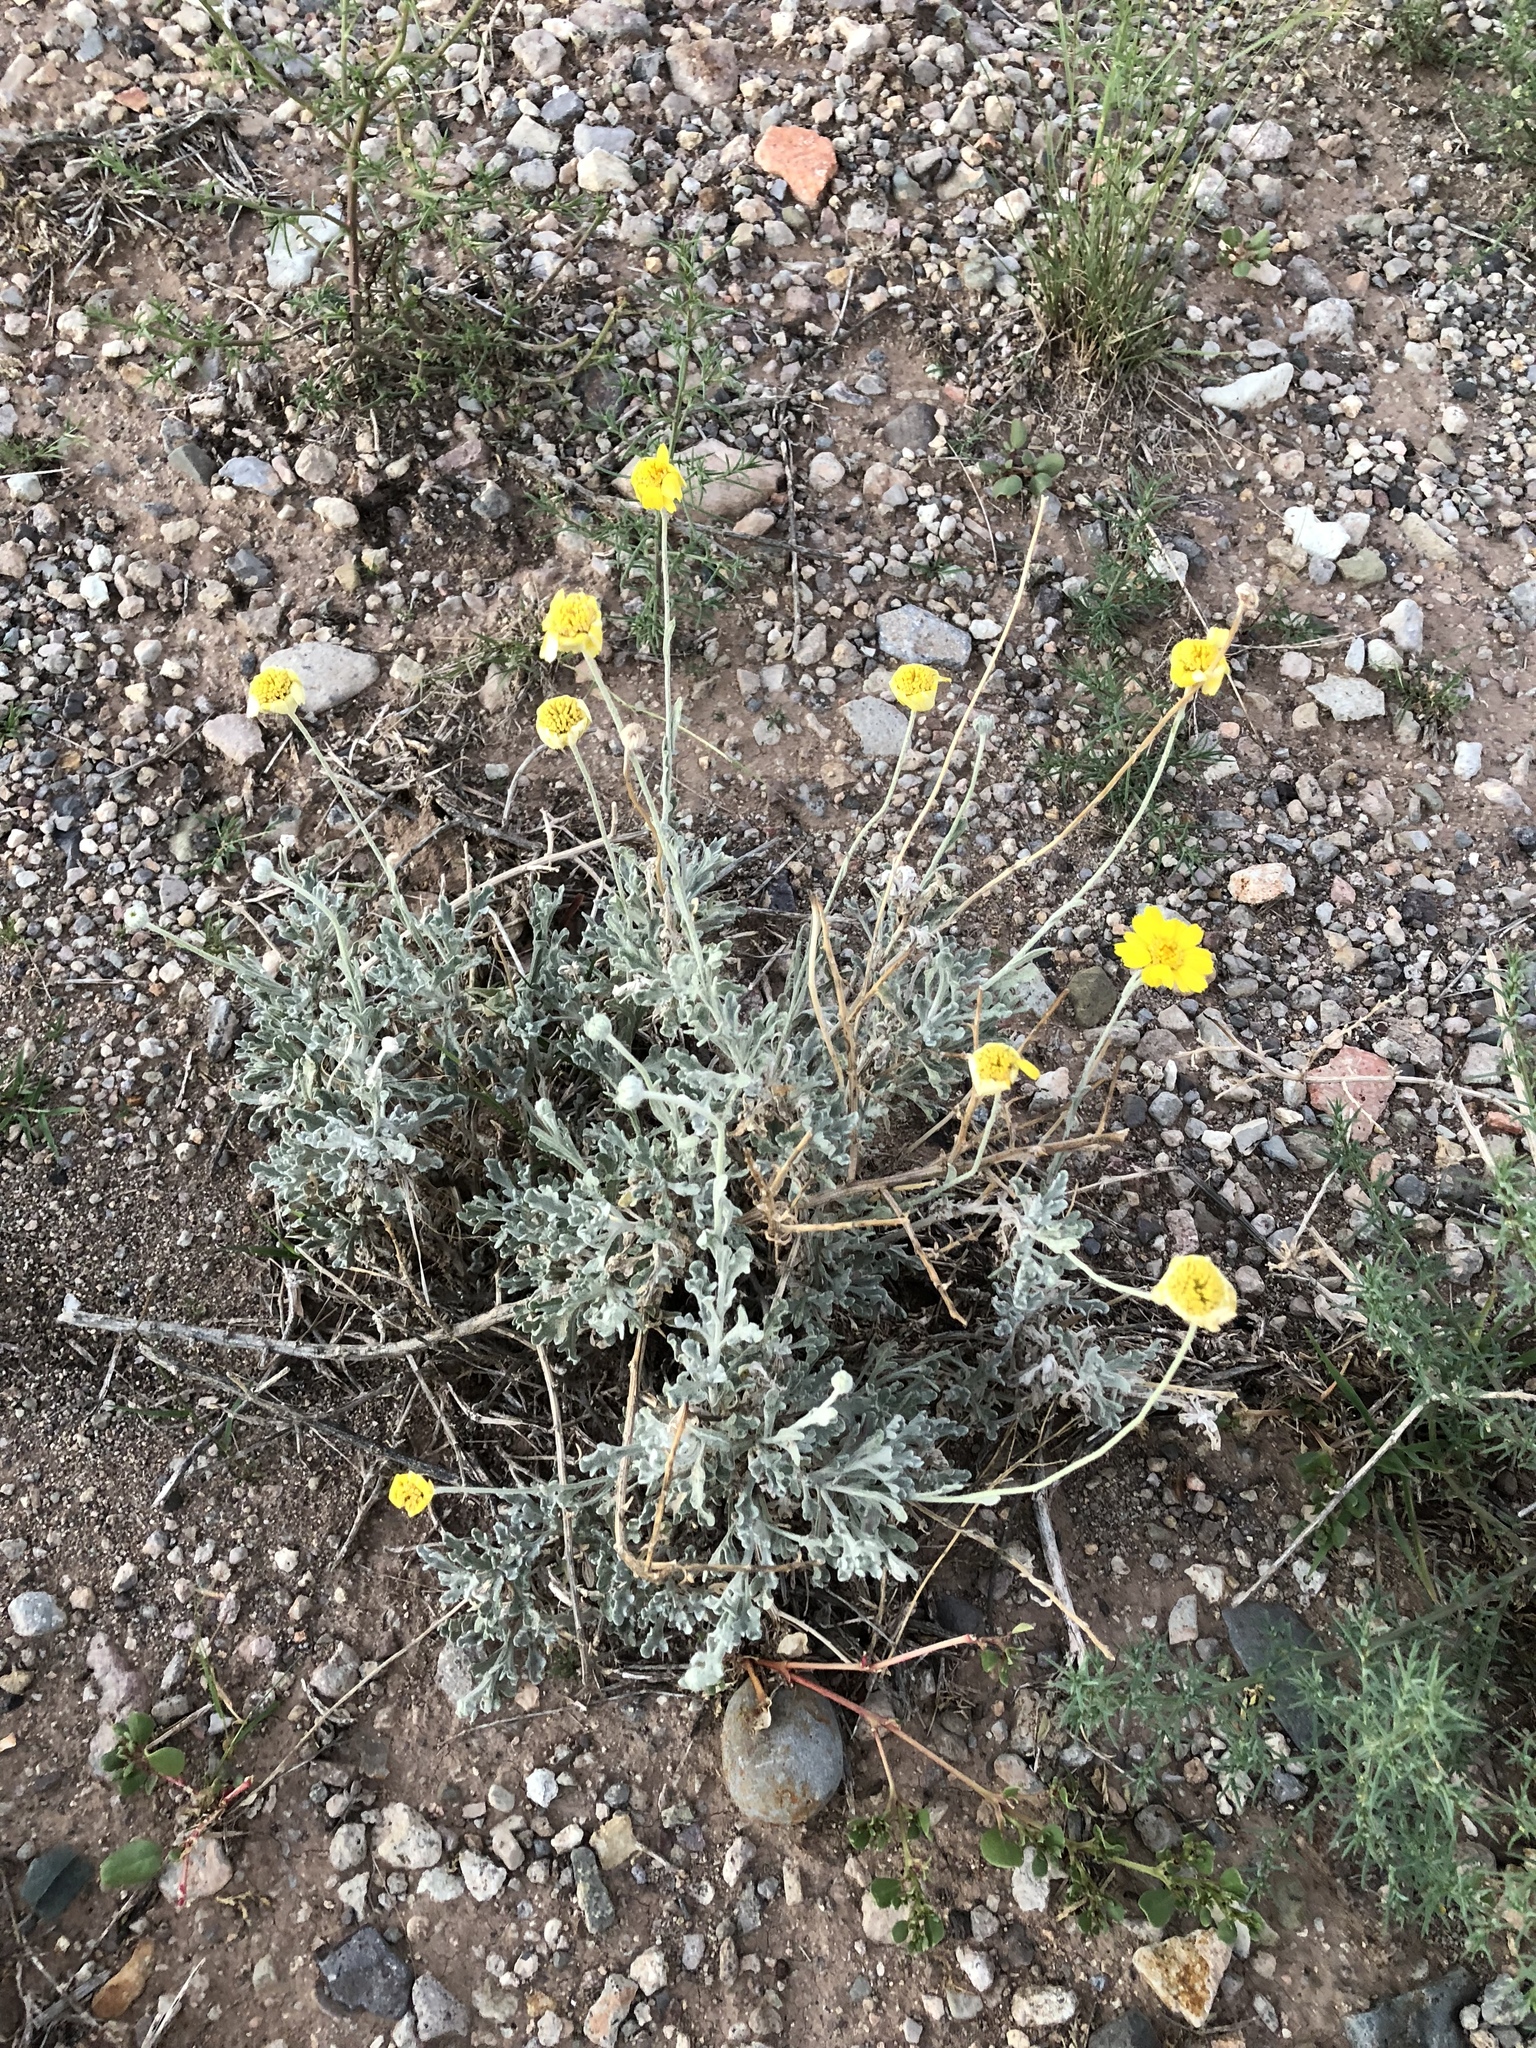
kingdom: Plantae
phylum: Tracheophyta
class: Magnoliopsida
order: Asterales
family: Asteraceae
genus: Baileya
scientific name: Baileya multiradiata
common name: Desert-marigold
